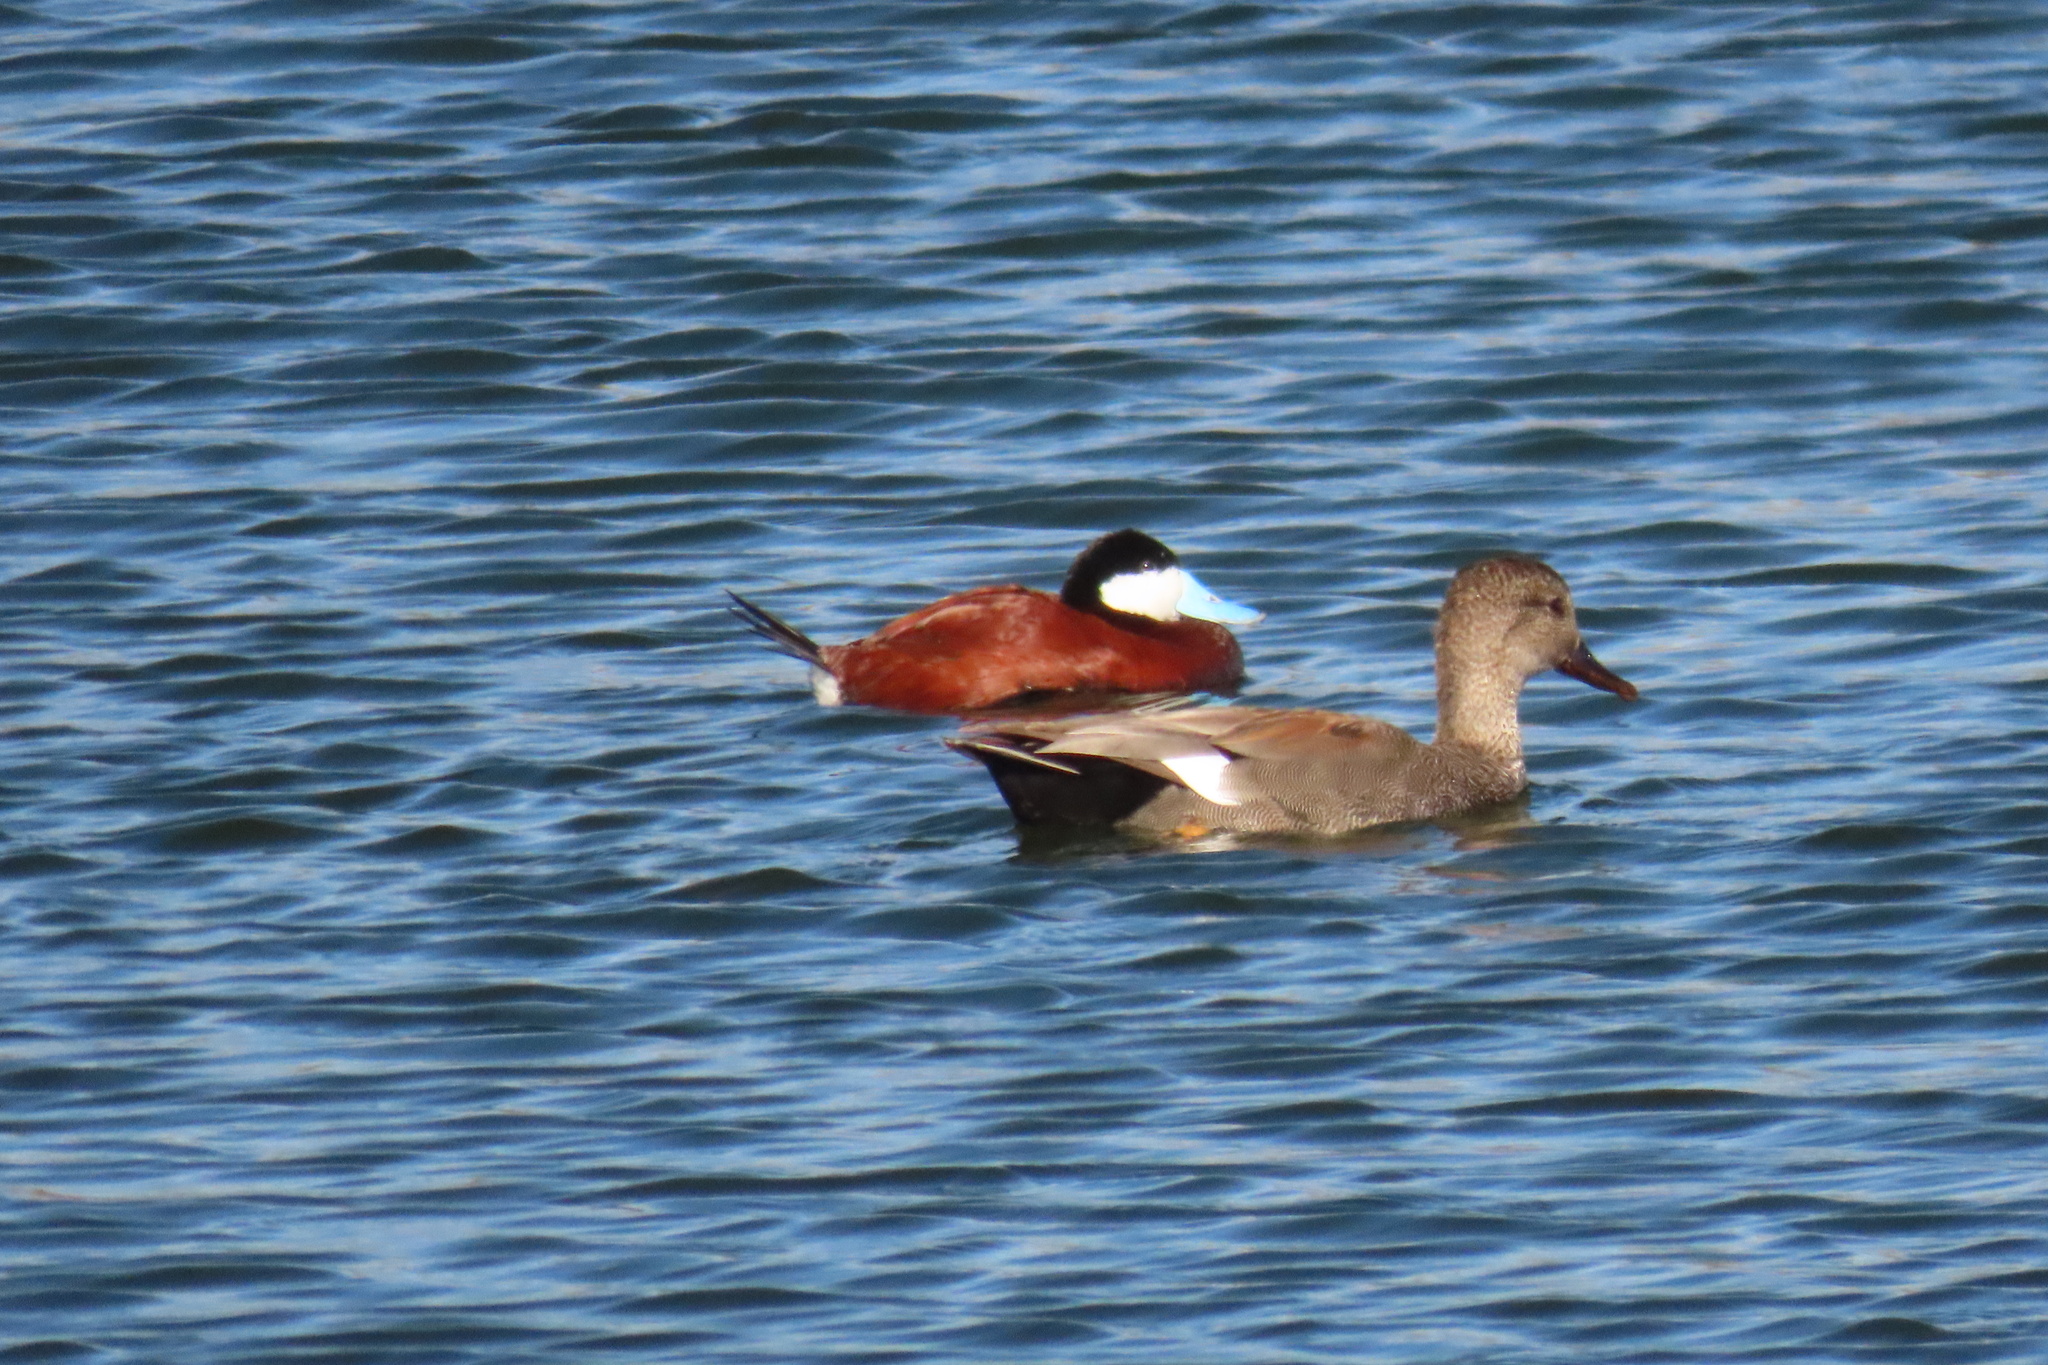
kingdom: Animalia
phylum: Chordata
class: Aves
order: Anseriformes
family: Anatidae
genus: Oxyura
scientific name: Oxyura jamaicensis
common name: Ruddy duck
